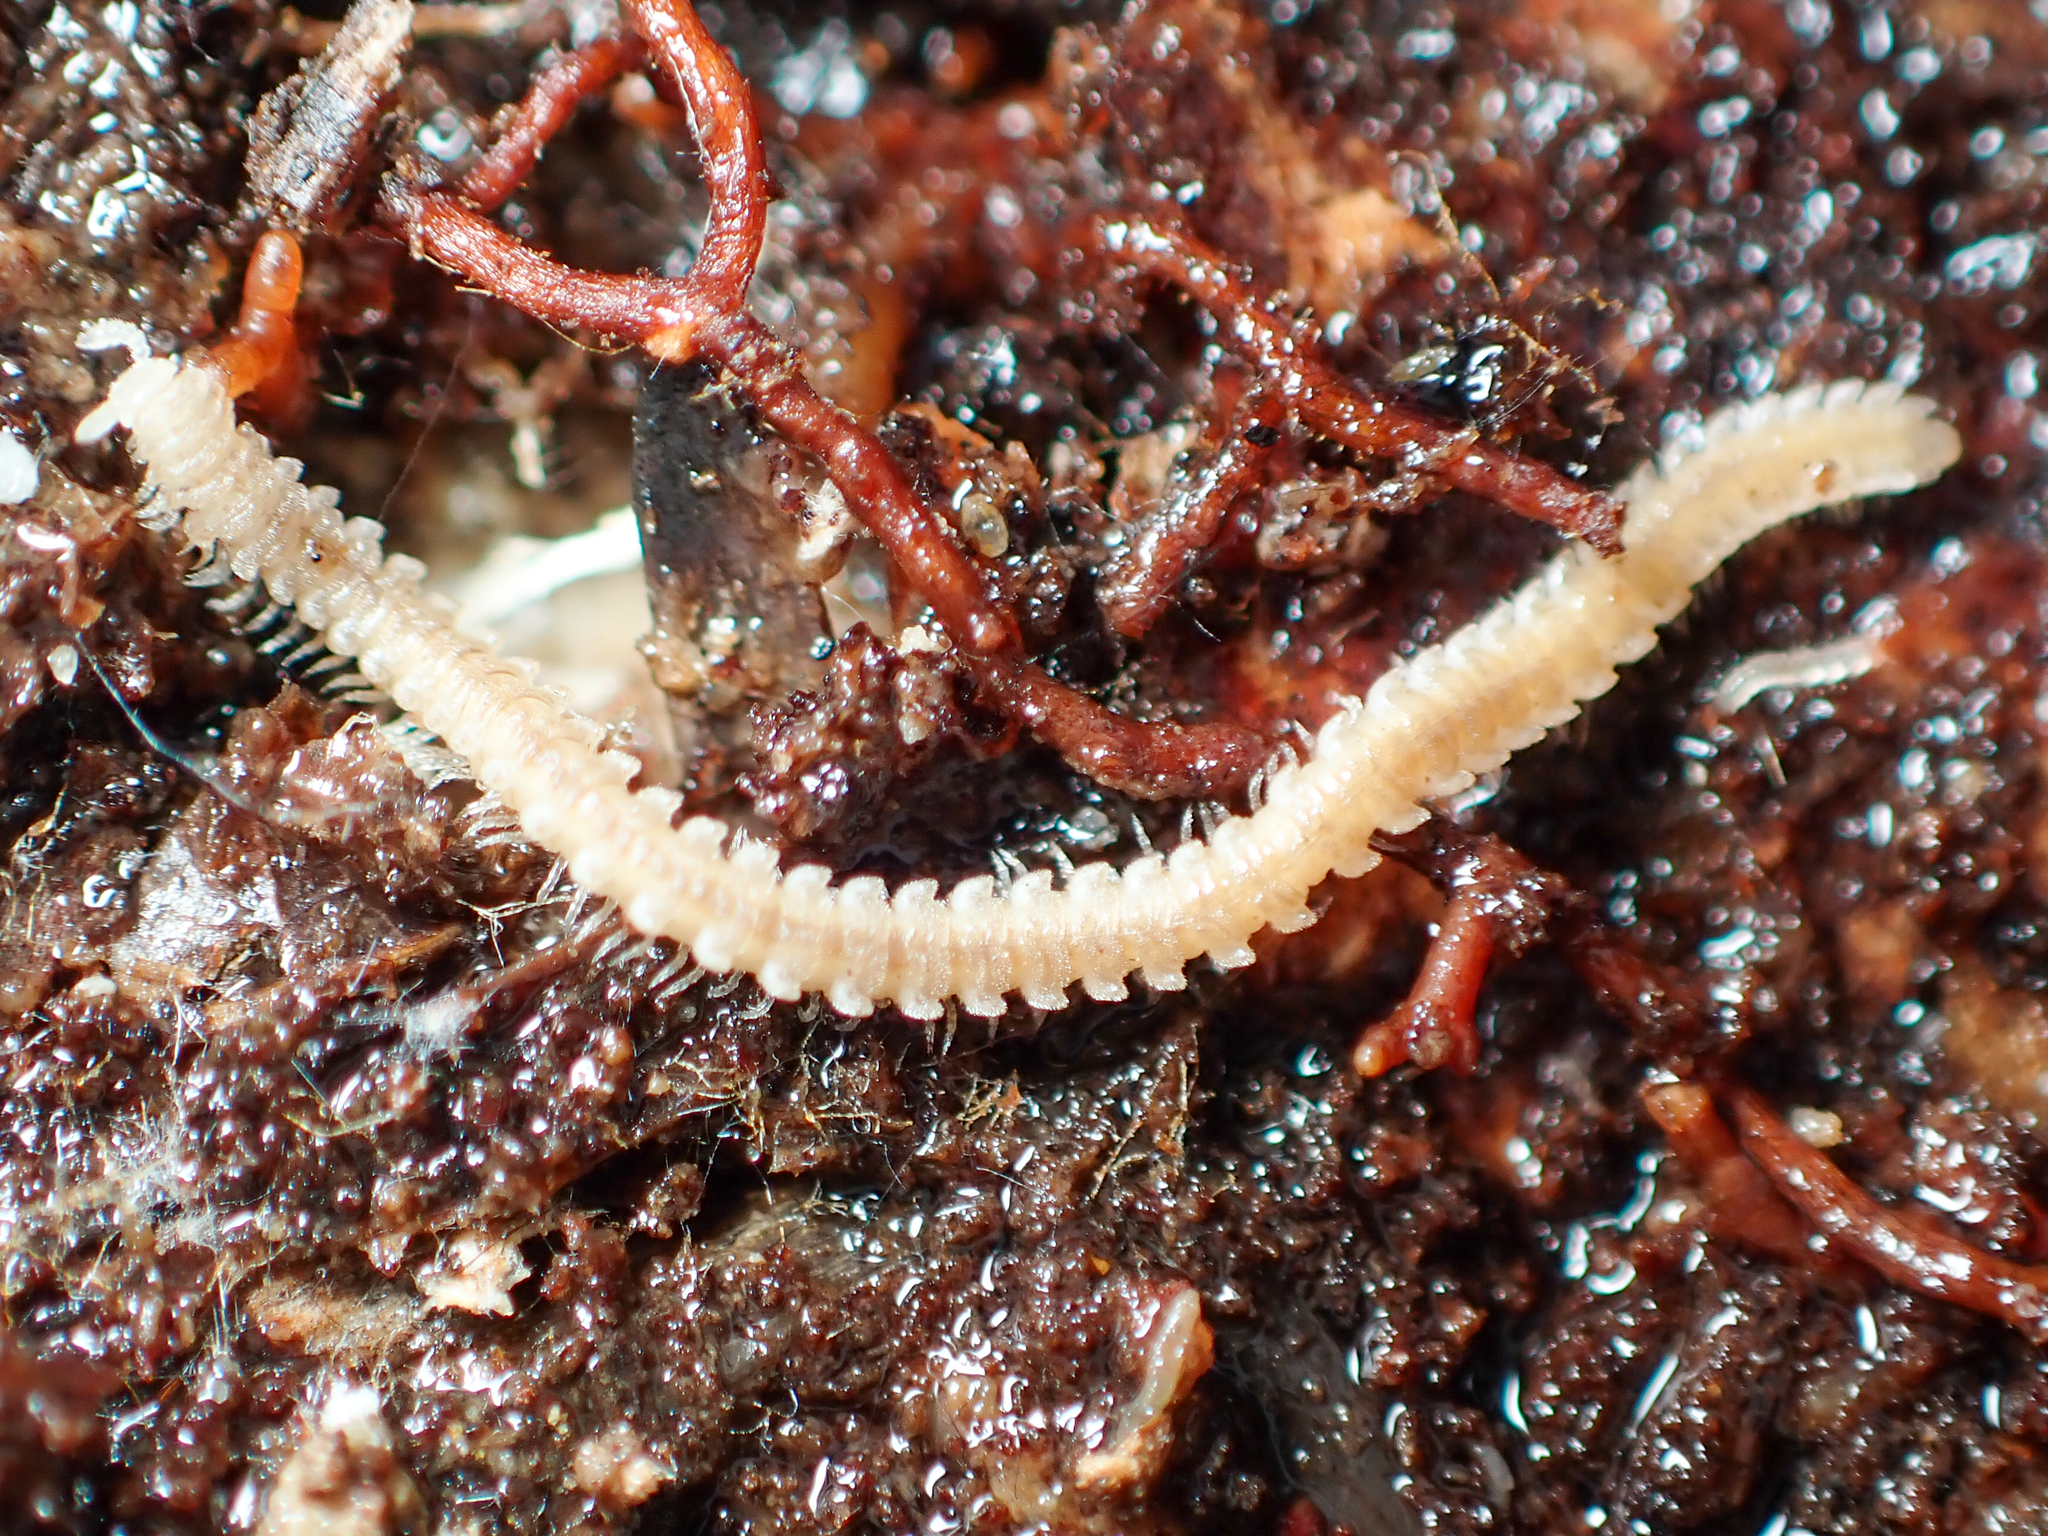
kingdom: Animalia
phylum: Arthropoda
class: Diplopoda
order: Platydesmida
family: Andrognathidae
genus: Andrognathus
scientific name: Andrognathus corticarius
